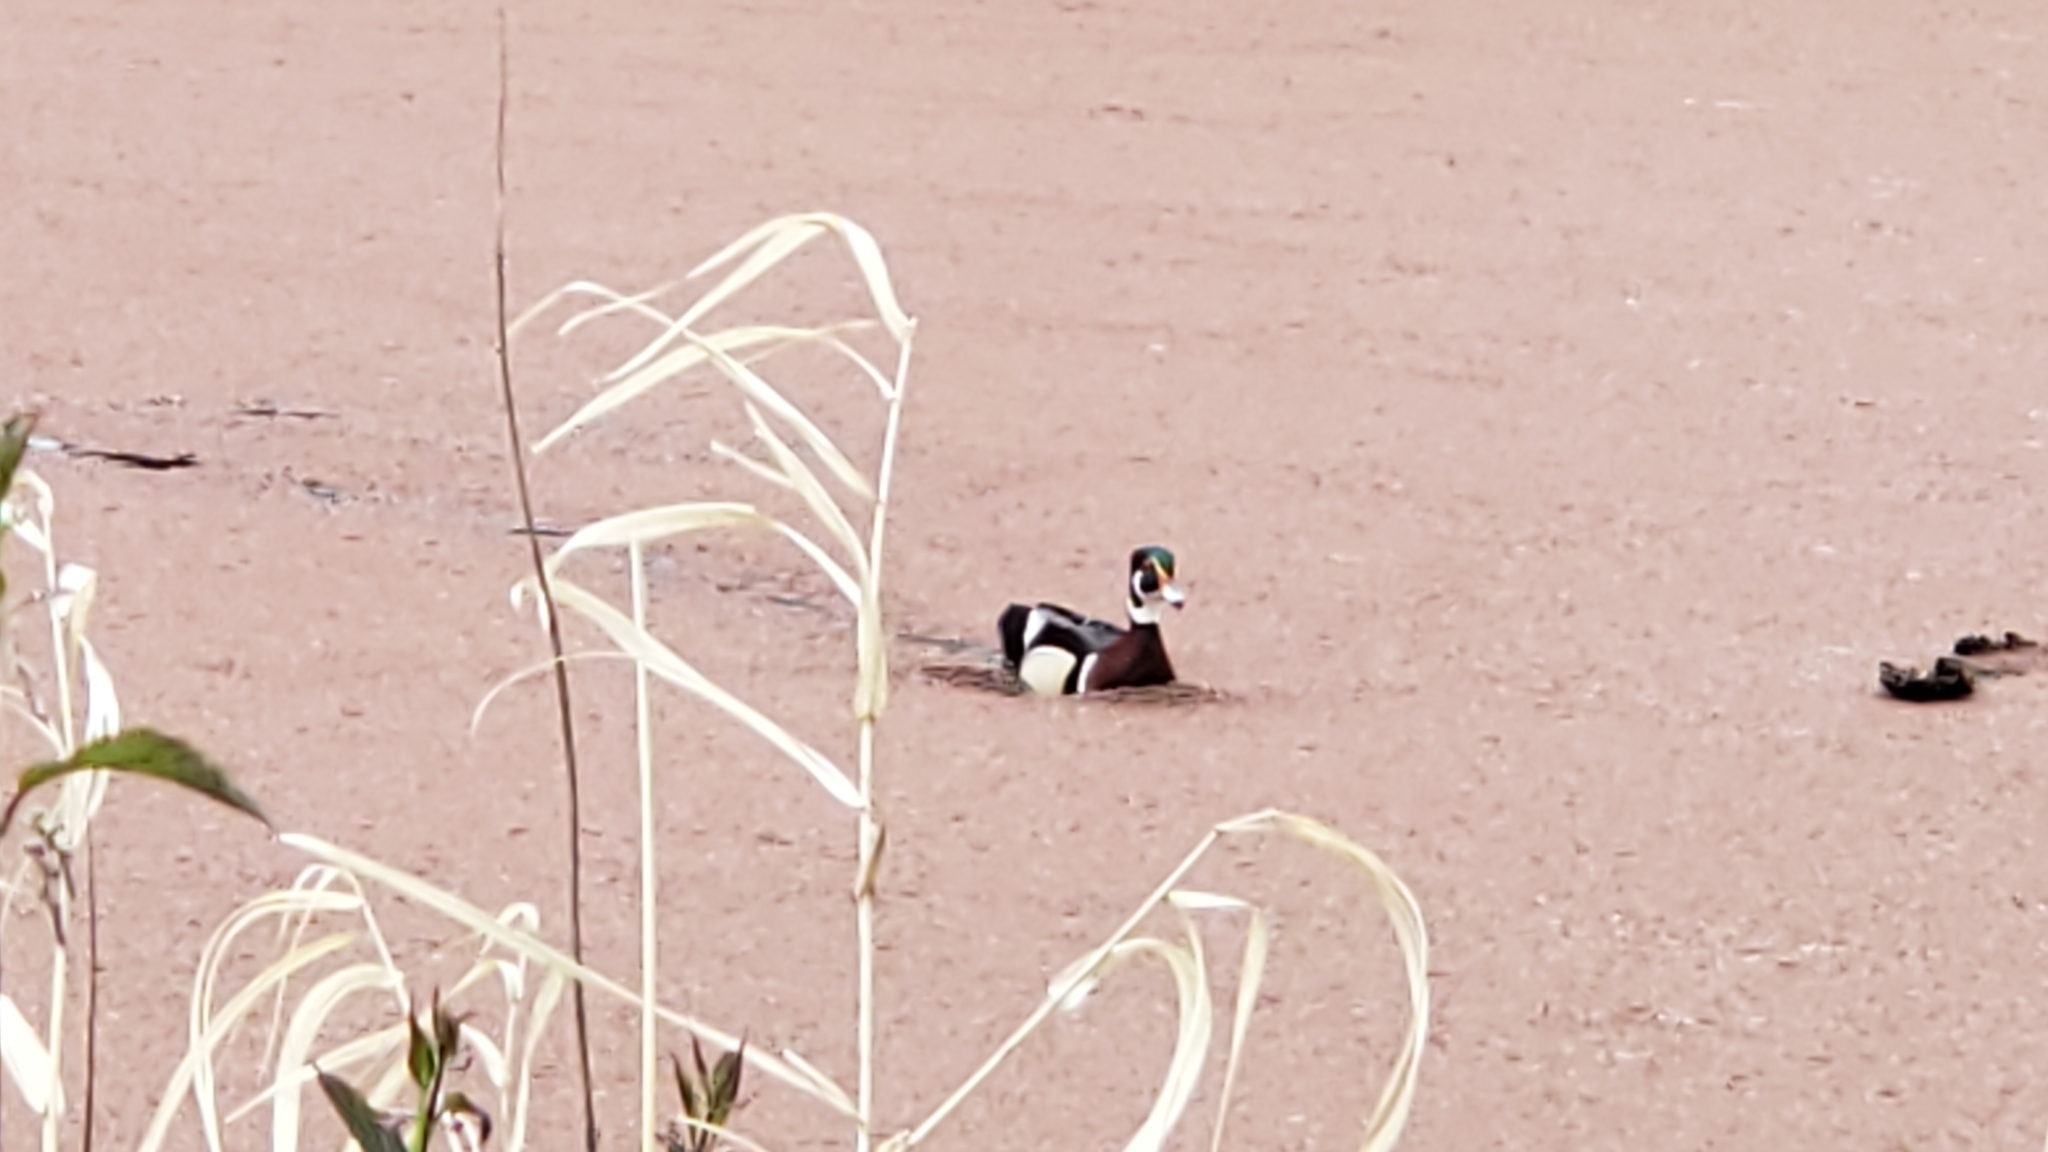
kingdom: Animalia
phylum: Chordata
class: Aves
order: Anseriformes
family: Anatidae
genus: Aix
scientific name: Aix sponsa
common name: Wood duck
